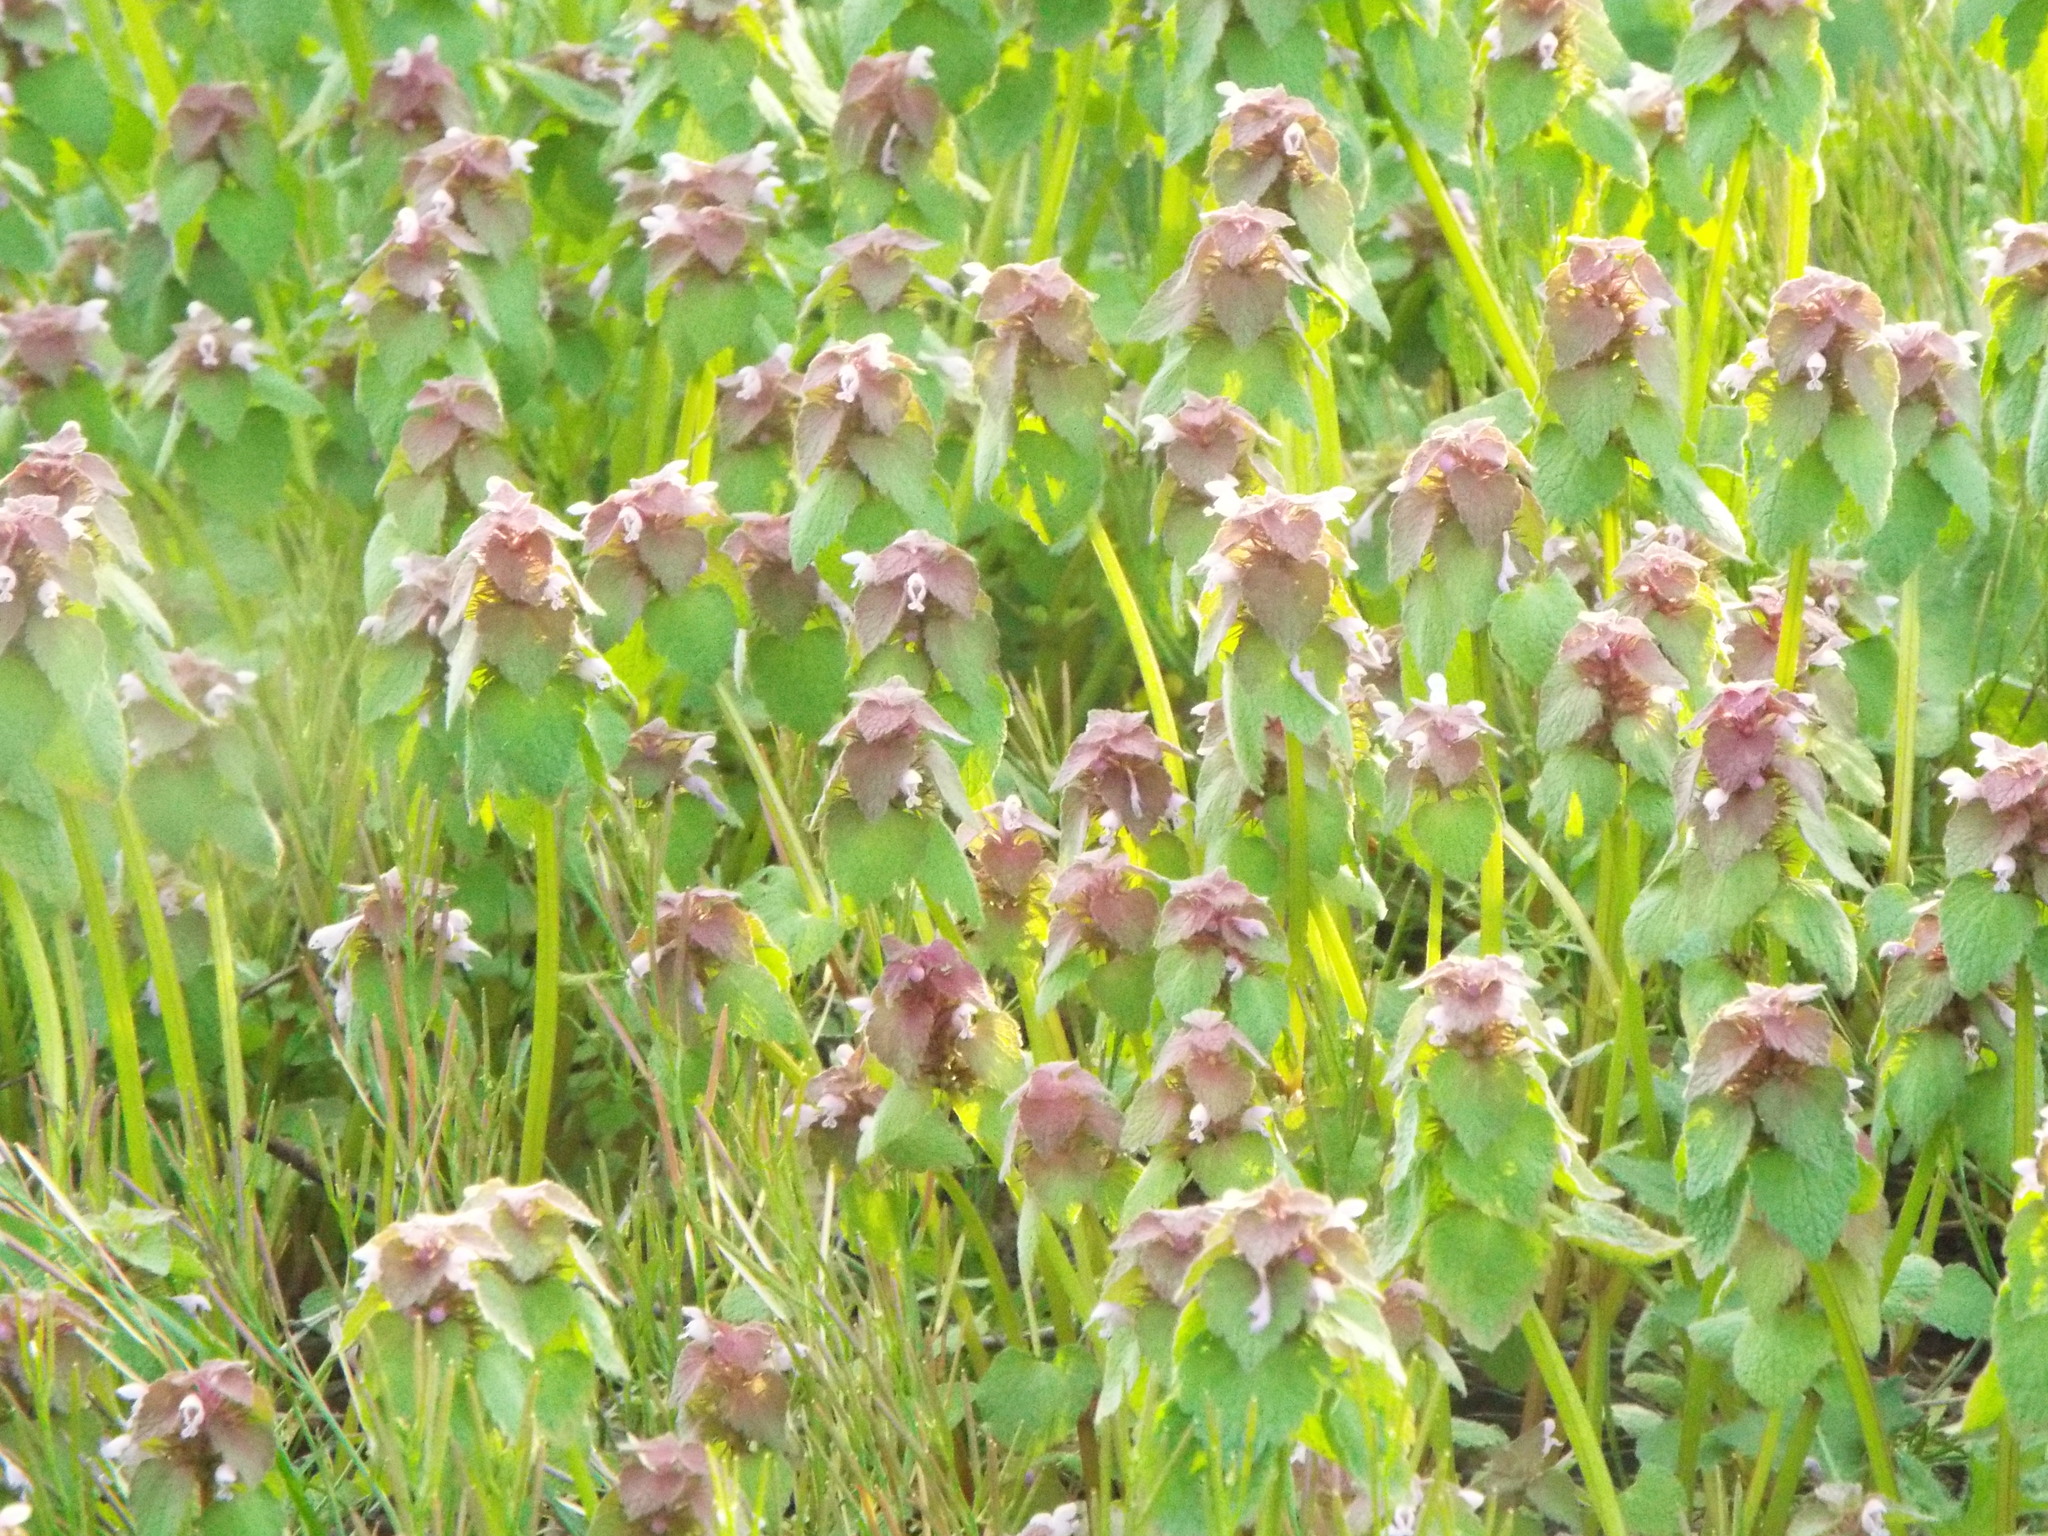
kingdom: Plantae
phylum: Tracheophyta
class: Magnoliopsida
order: Lamiales
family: Lamiaceae
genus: Lamium
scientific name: Lamium purpureum
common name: Red dead-nettle
